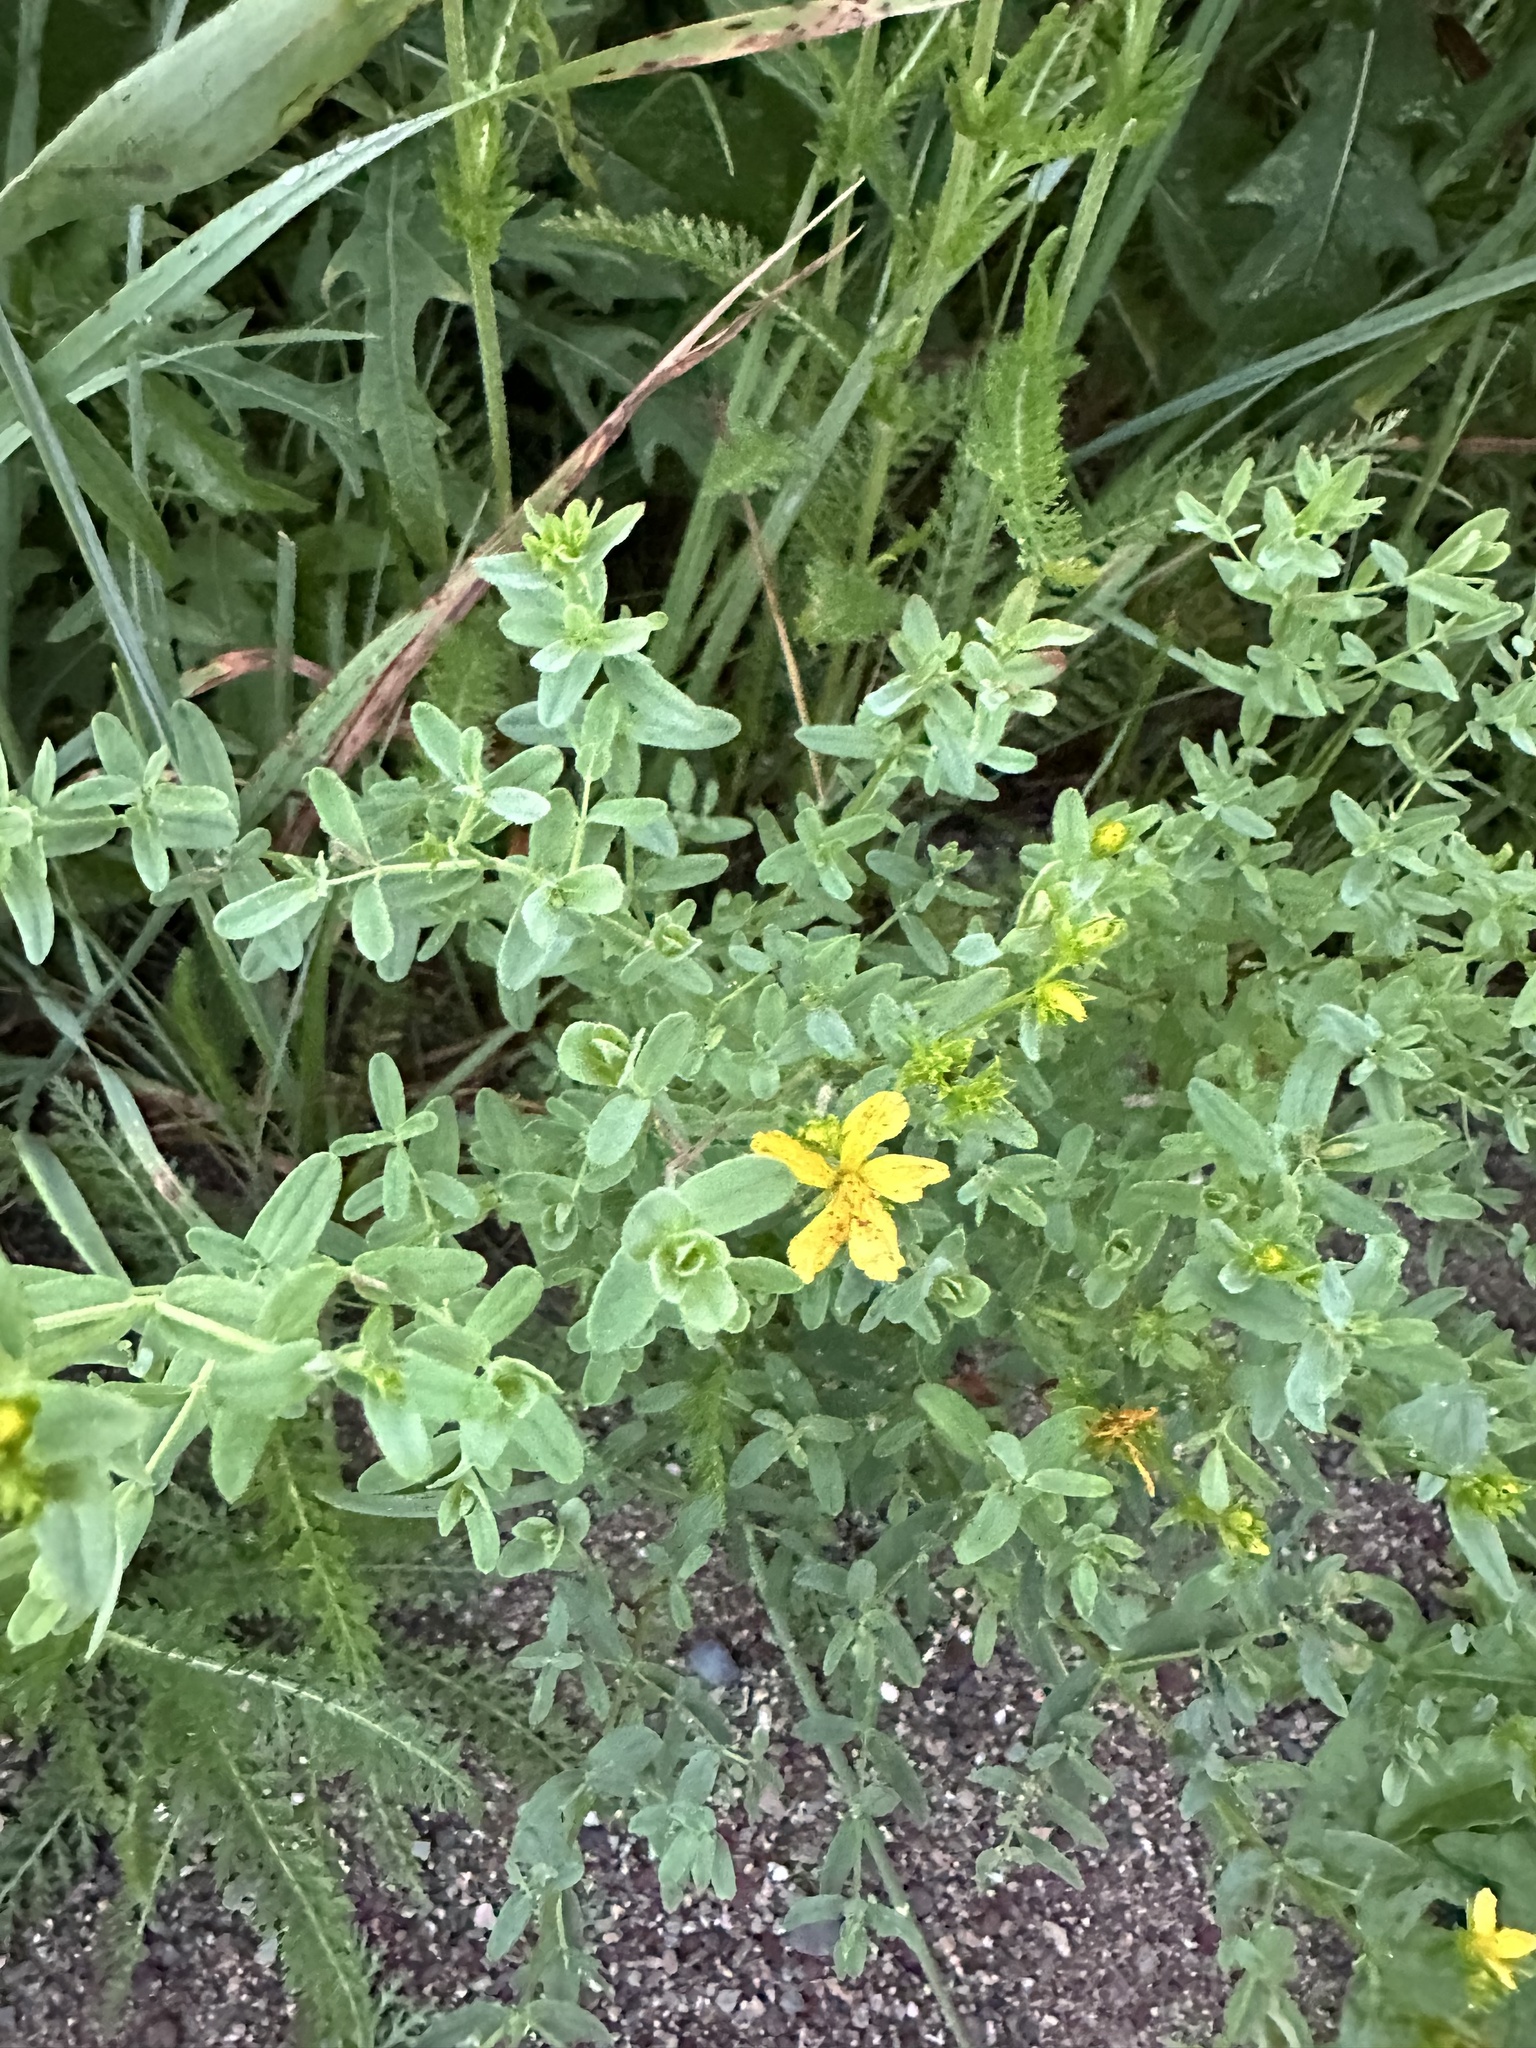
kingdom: Plantae
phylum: Tracheophyta
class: Magnoliopsida
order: Malpighiales
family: Hypericaceae
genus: Hypericum
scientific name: Hypericum perforatum
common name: Common st. johnswort
